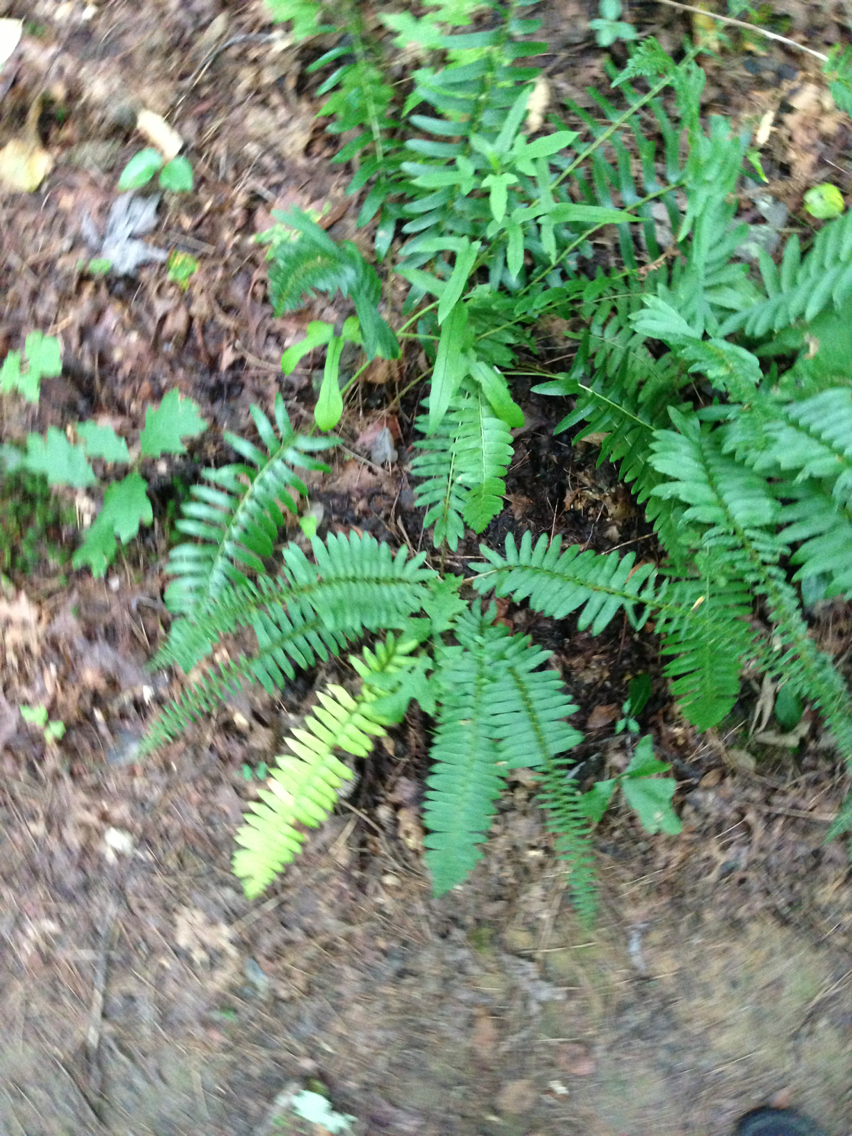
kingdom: Plantae
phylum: Tracheophyta
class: Polypodiopsida
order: Polypodiales
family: Dryopteridaceae
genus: Polystichum
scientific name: Polystichum acrostichoides
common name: Christmas fern
